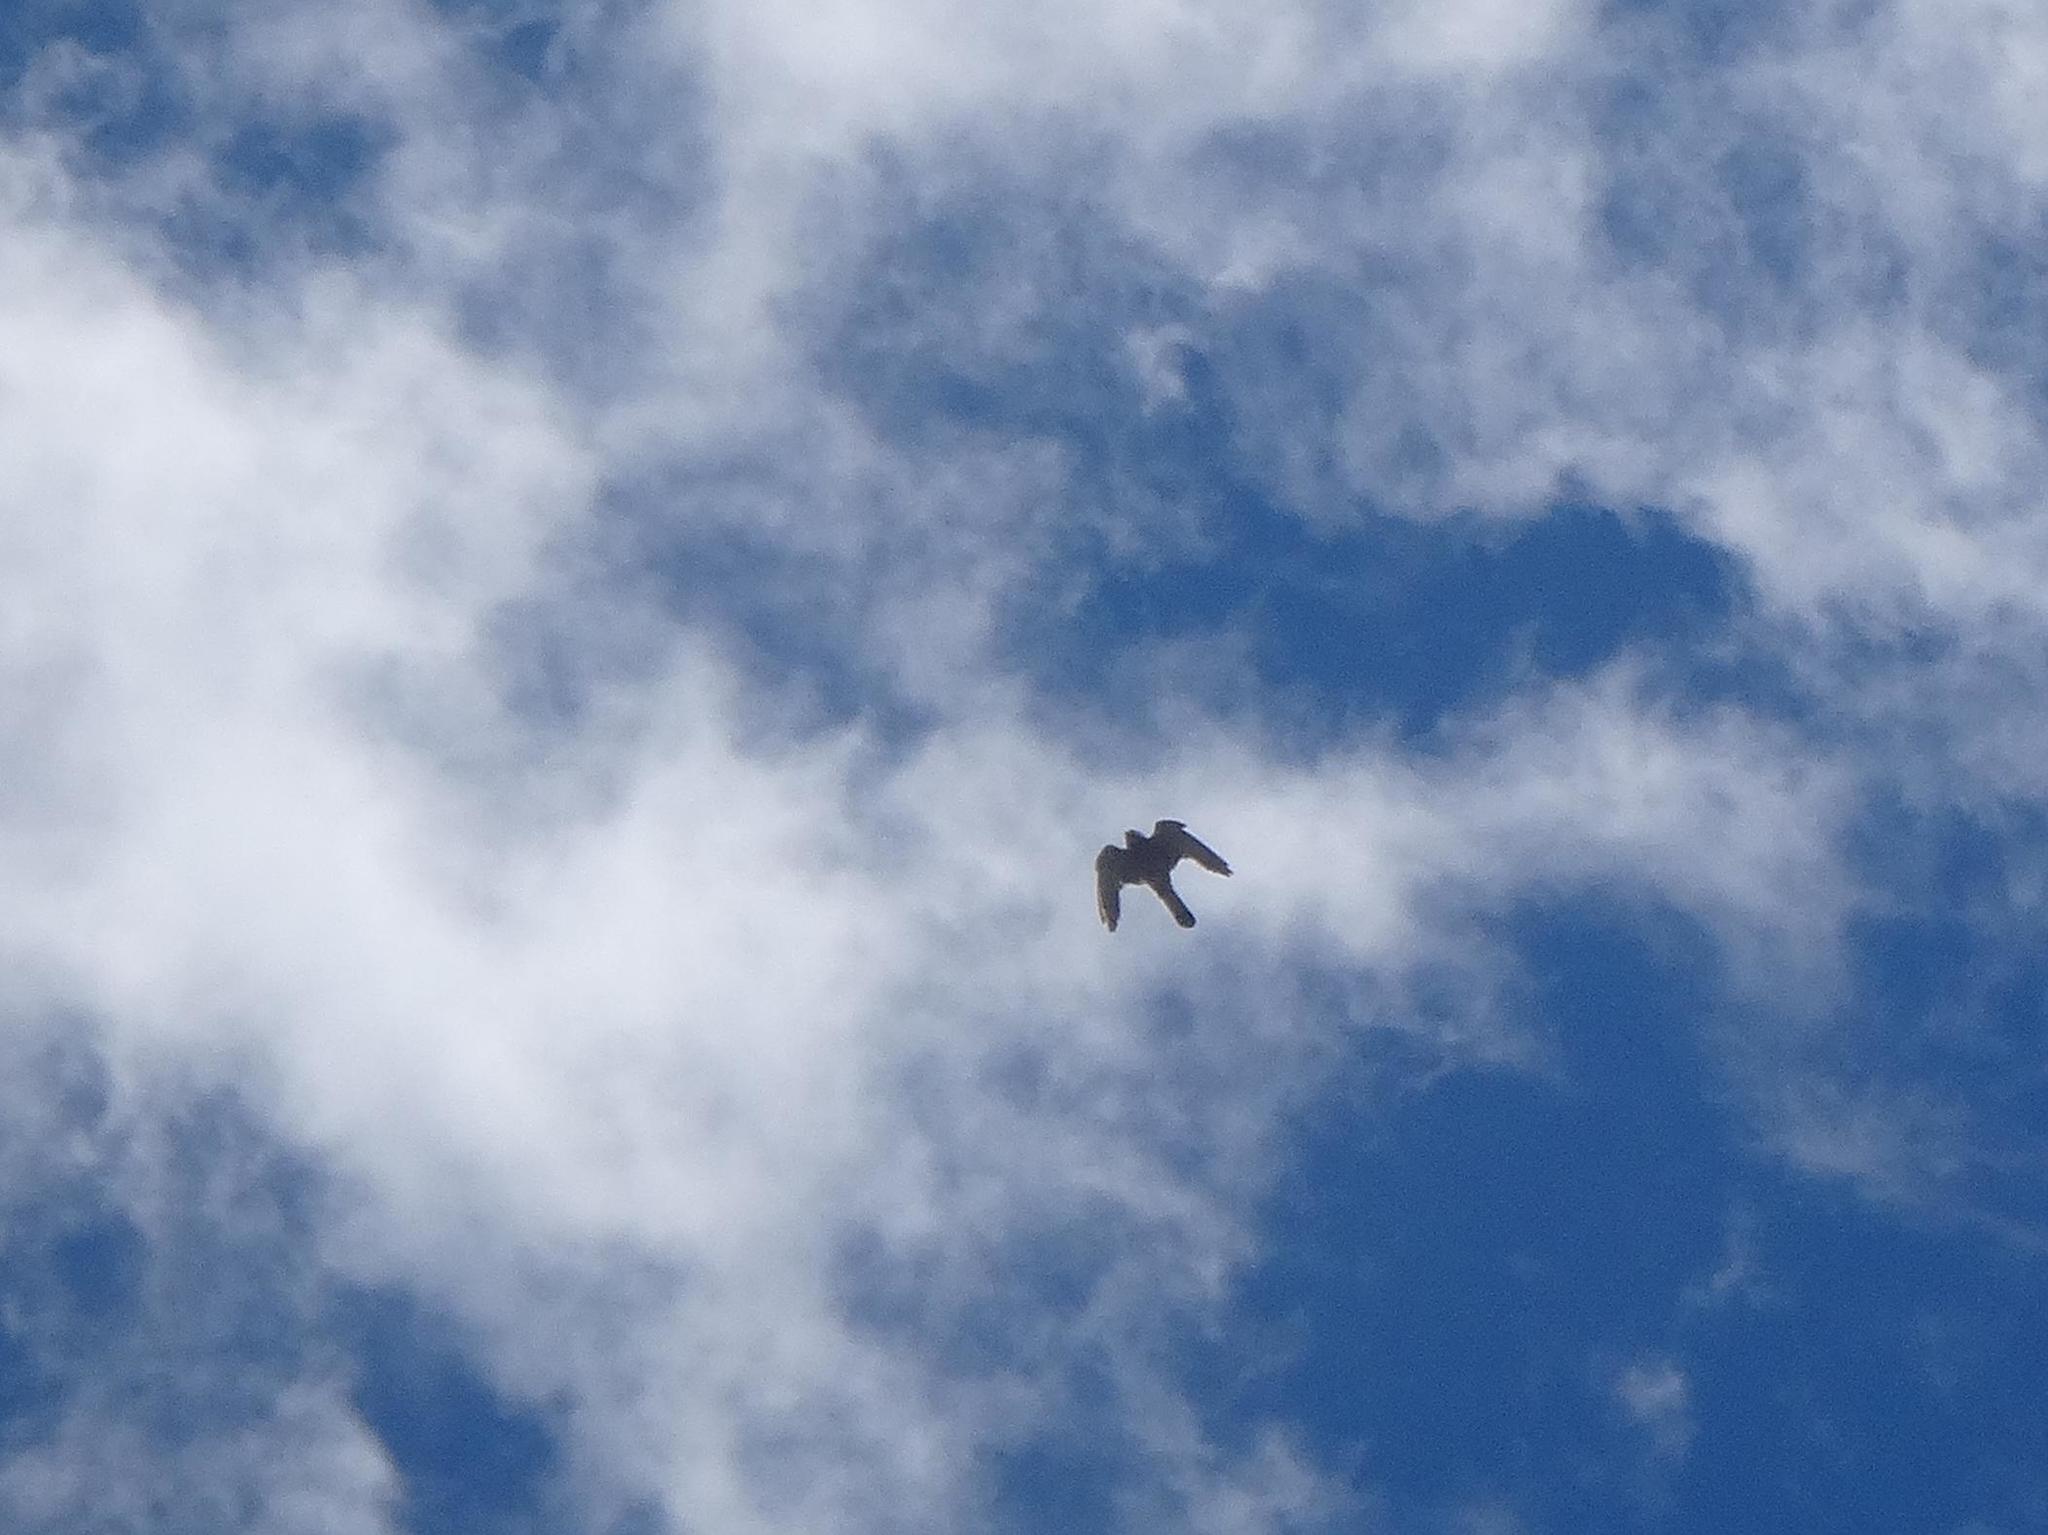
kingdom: Animalia
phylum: Chordata
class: Aves
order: Falconiformes
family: Falconidae
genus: Falco
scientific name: Falco tinnunculus
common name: Common kestrel
